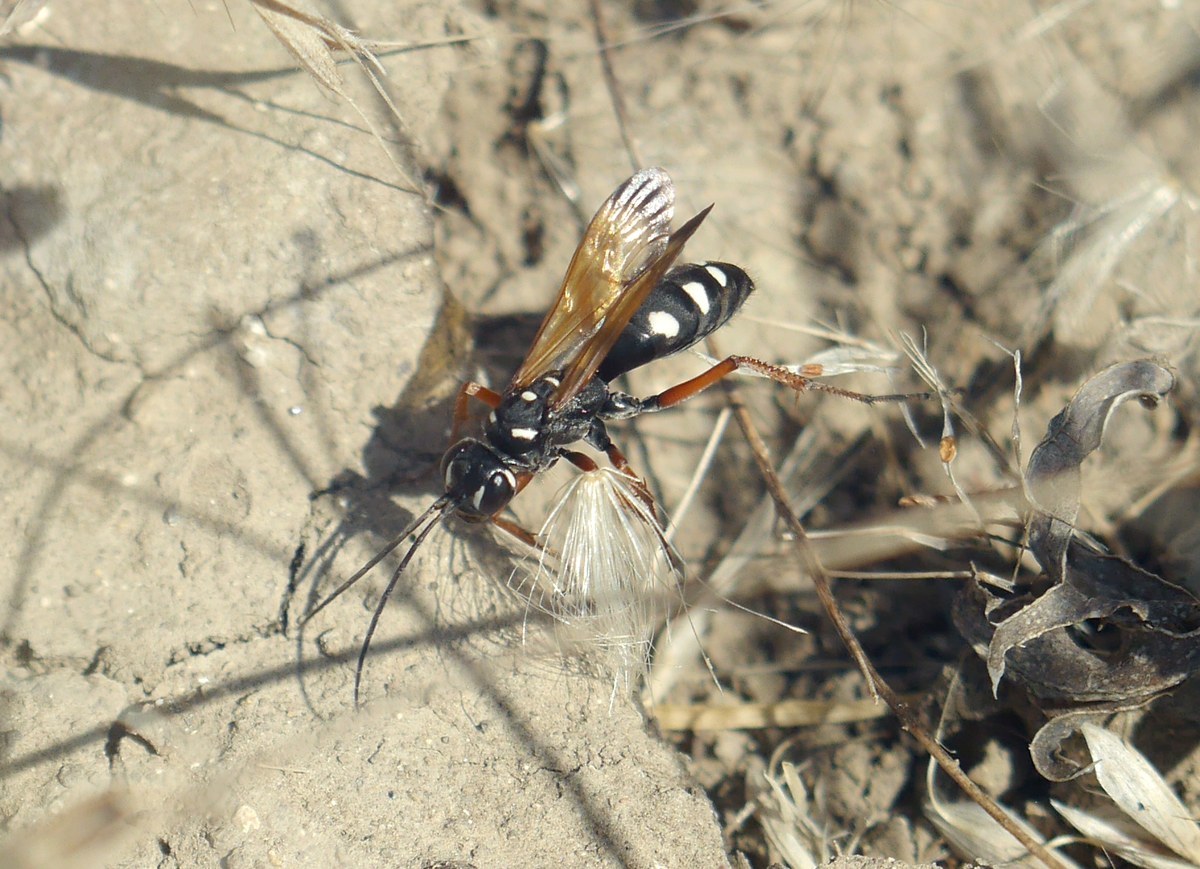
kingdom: Animalia
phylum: Arthropoda
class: Insecta
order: Hymenoptera
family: Pompilidae
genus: Cryptocheilus
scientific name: Cryptocheilus variabilis
